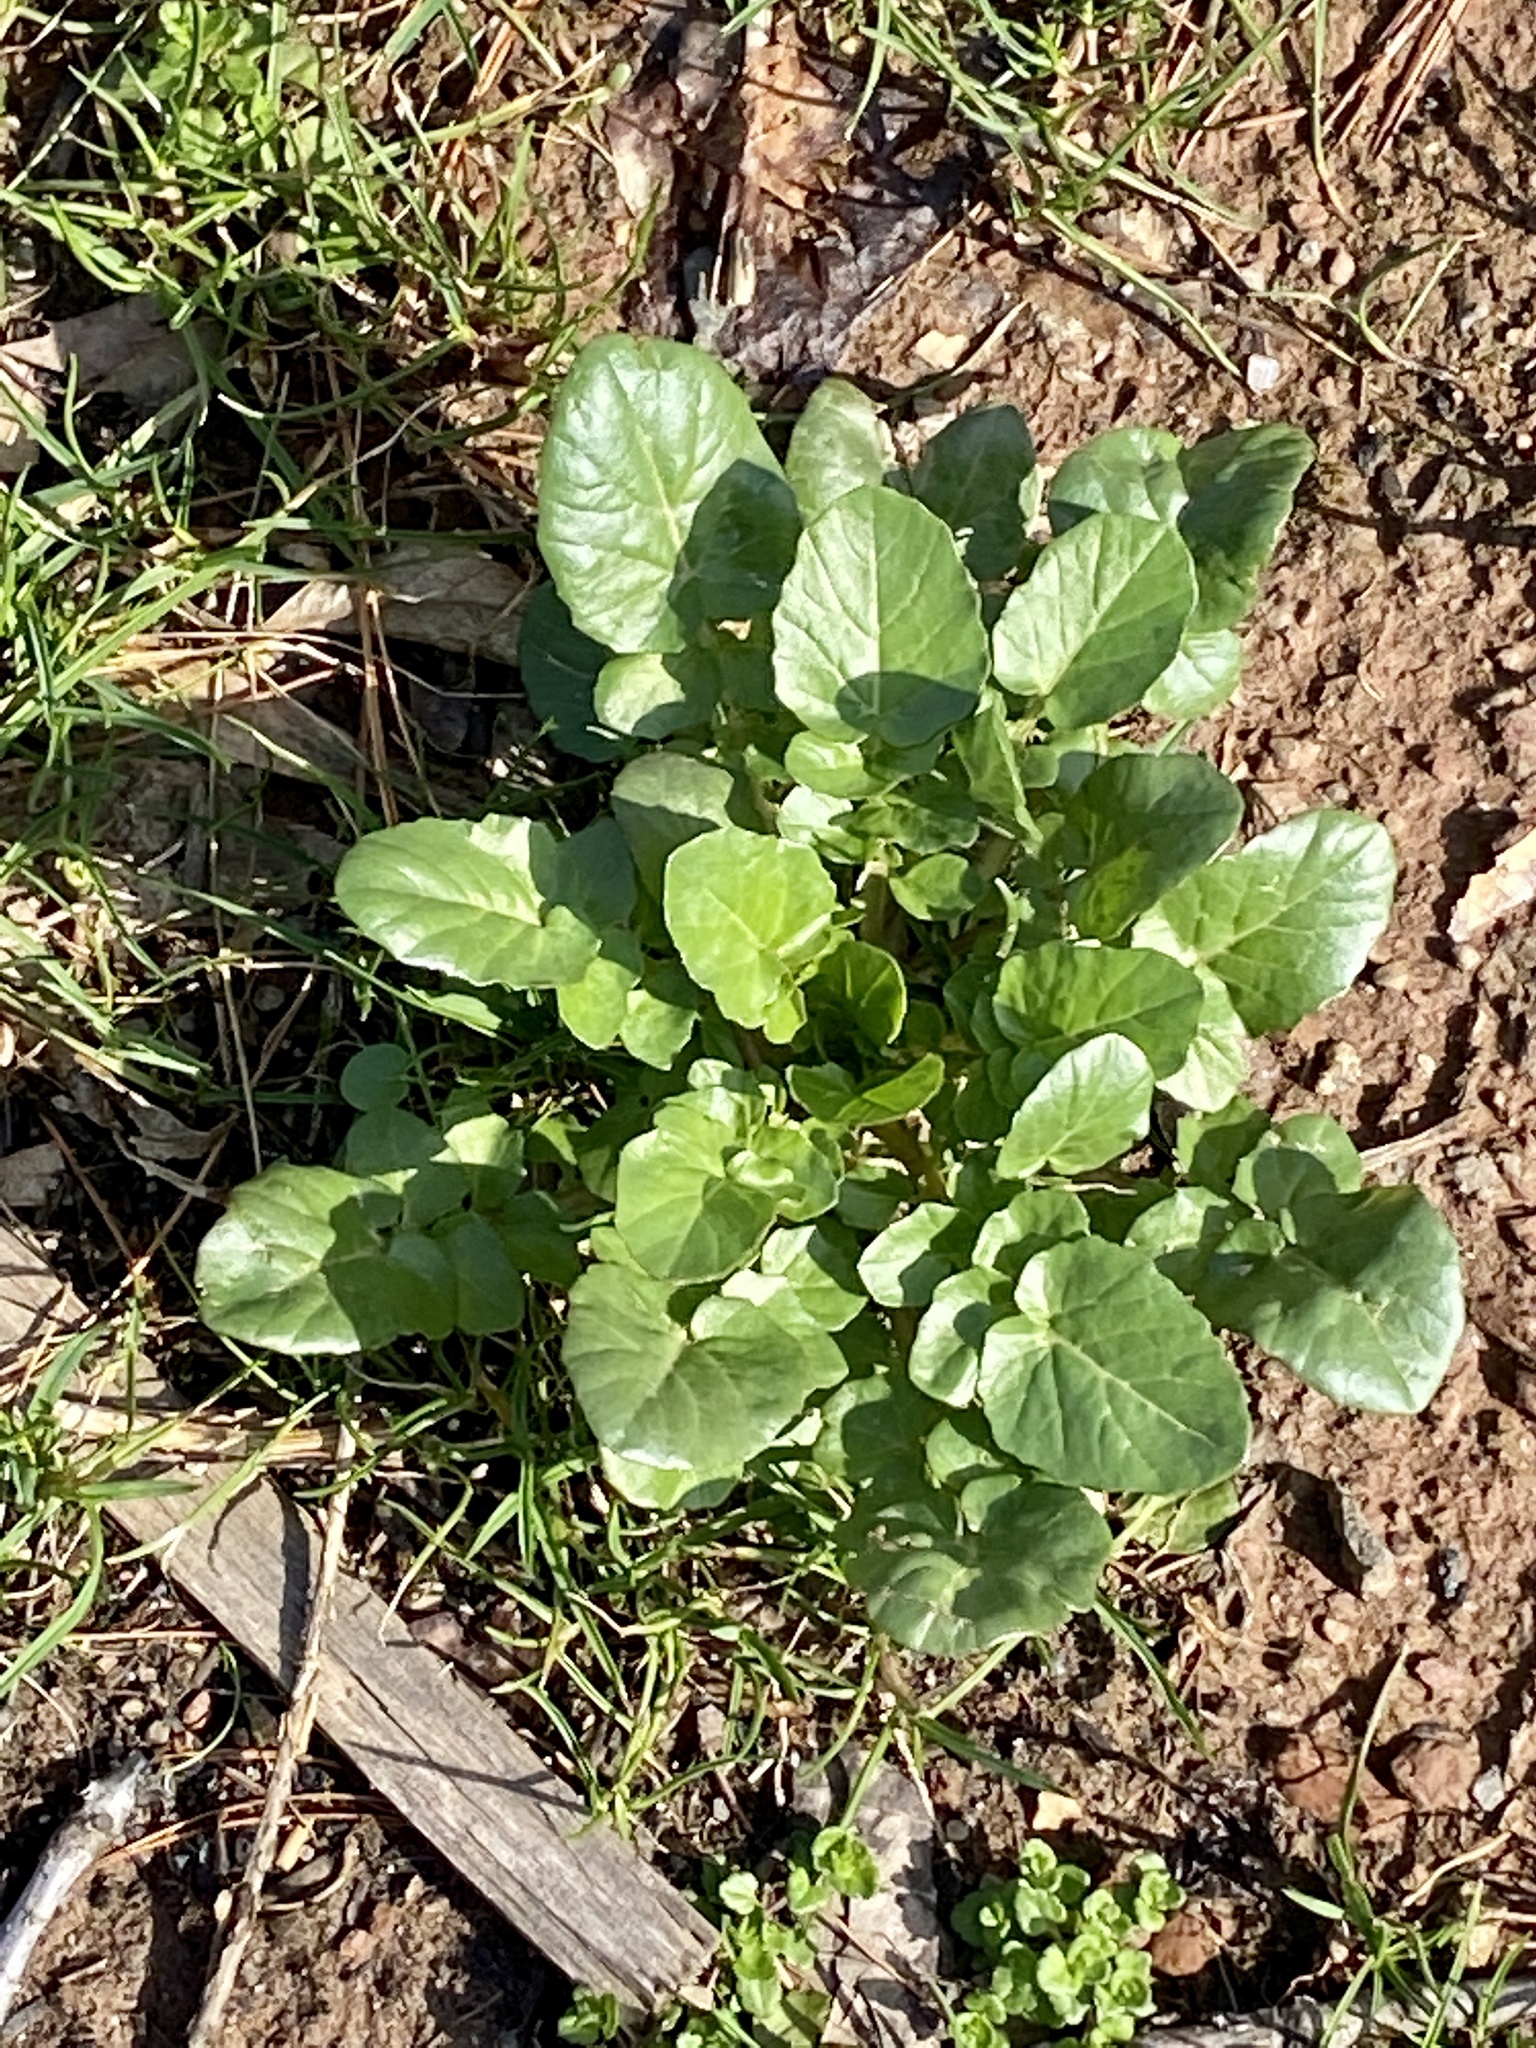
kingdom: Plantae
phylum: Tracheophyta
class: Magnoliopsida
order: Brassicales
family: Brassicaceae
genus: Barbarea
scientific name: Barbarea vulgaris
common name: Cressy-greens
